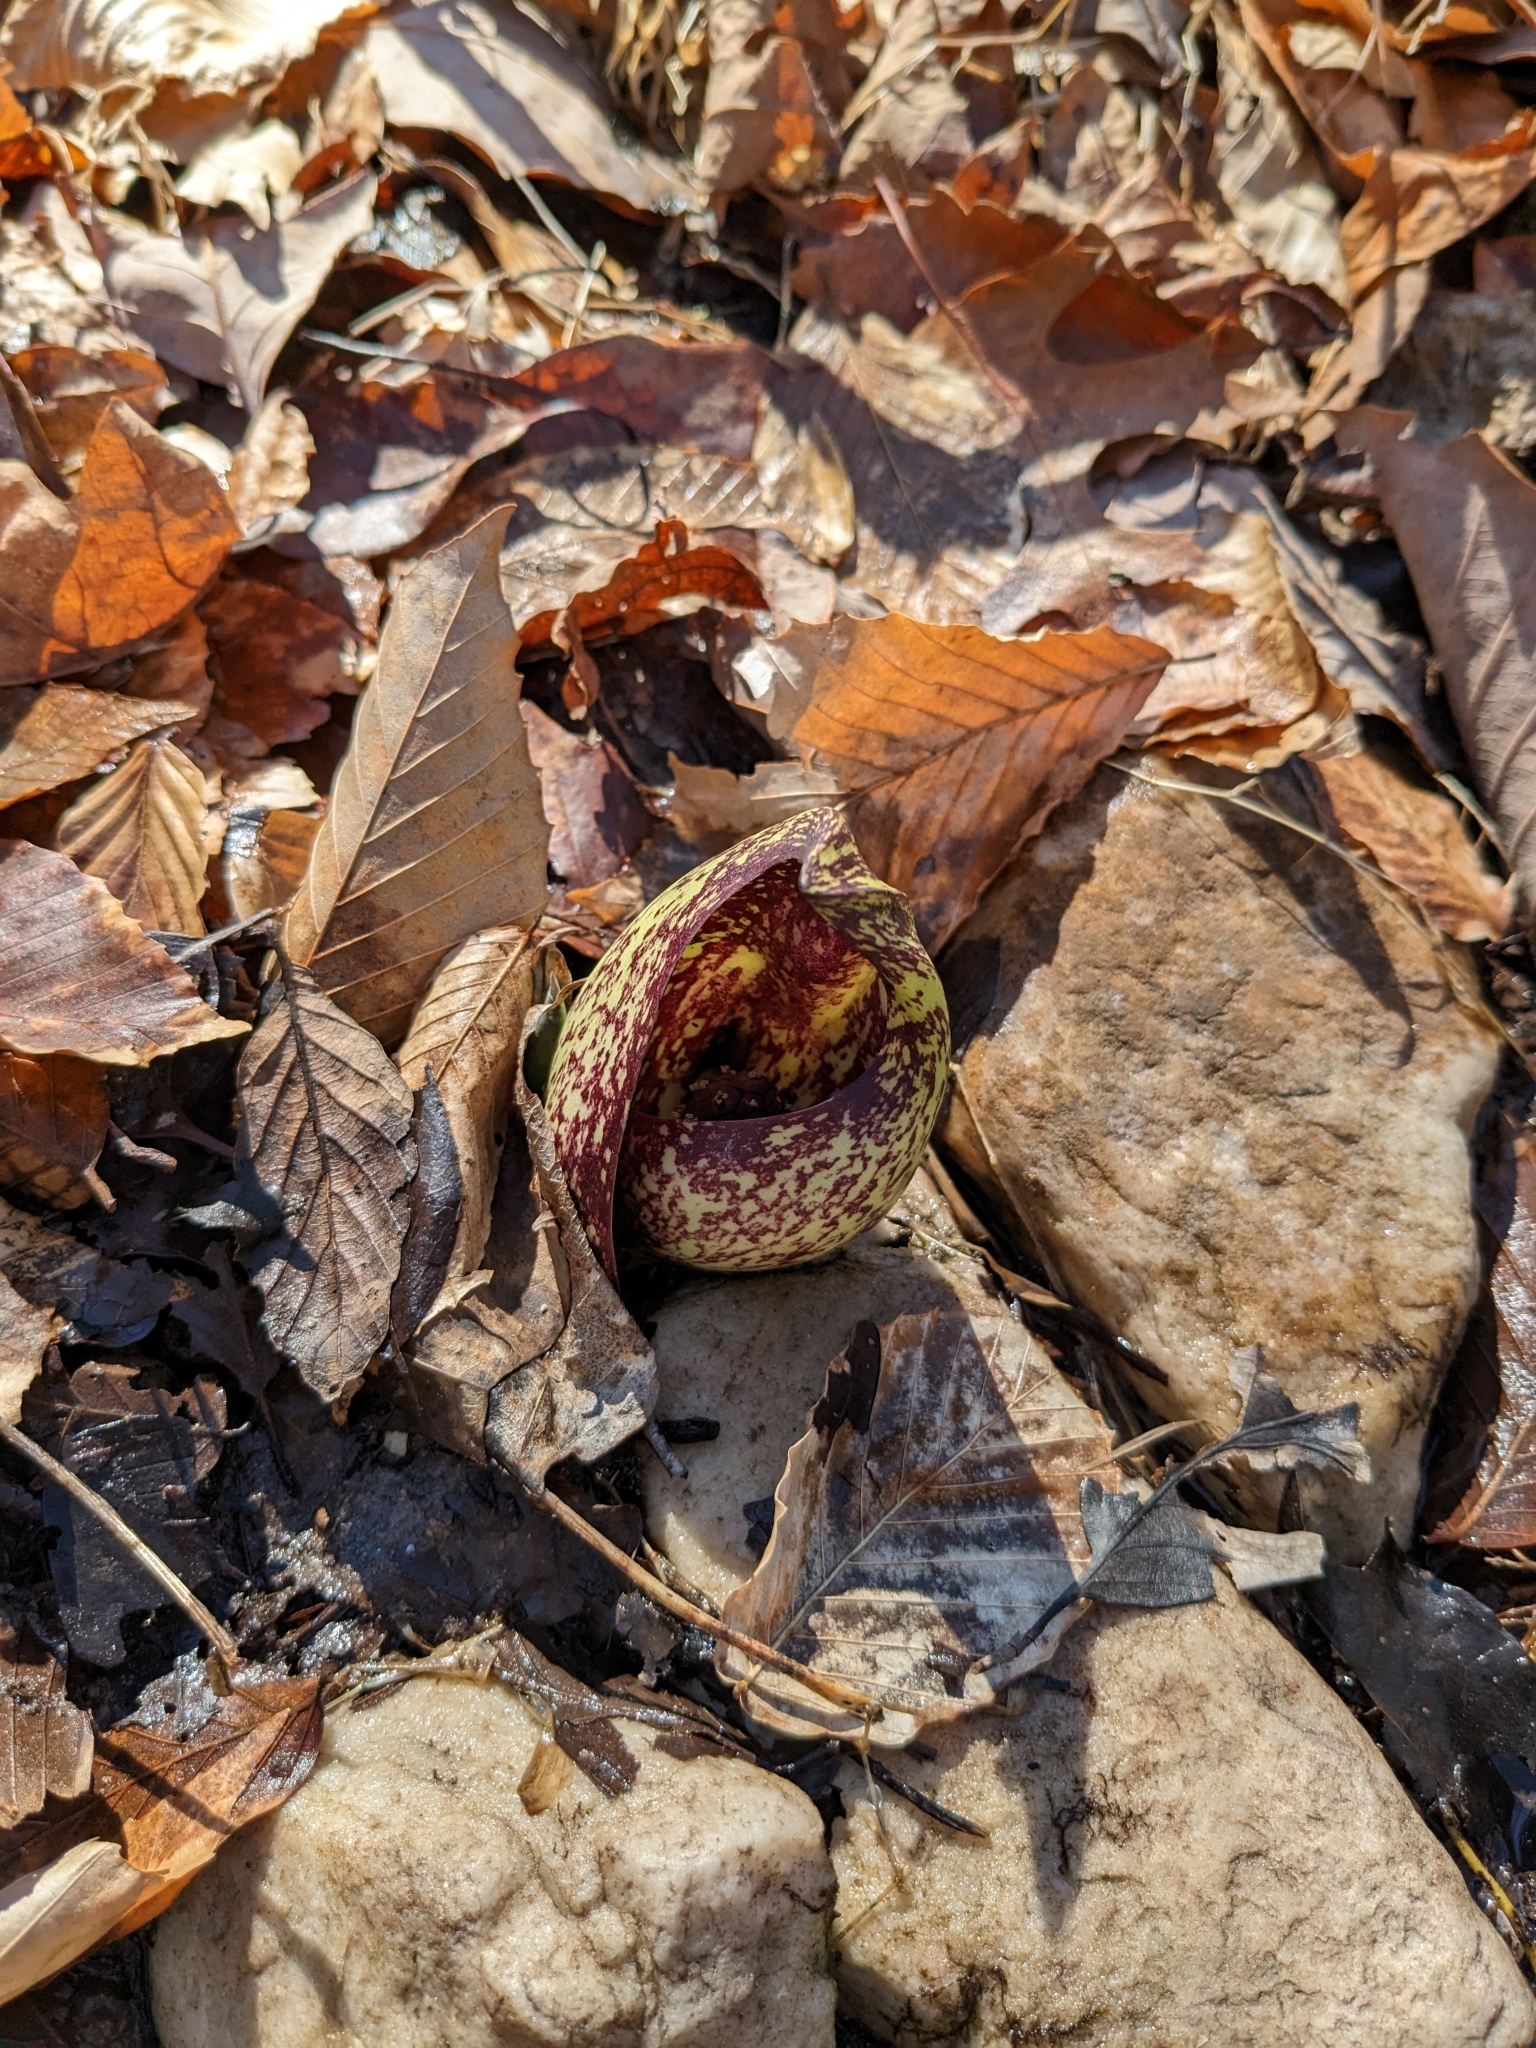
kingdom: Plantae
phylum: Tracheophyta
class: Liliopsida
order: Alismatales
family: Araceae
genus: Symplocarpus
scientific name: Symplocarpus foetidus
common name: Eastern skunk cabbage
